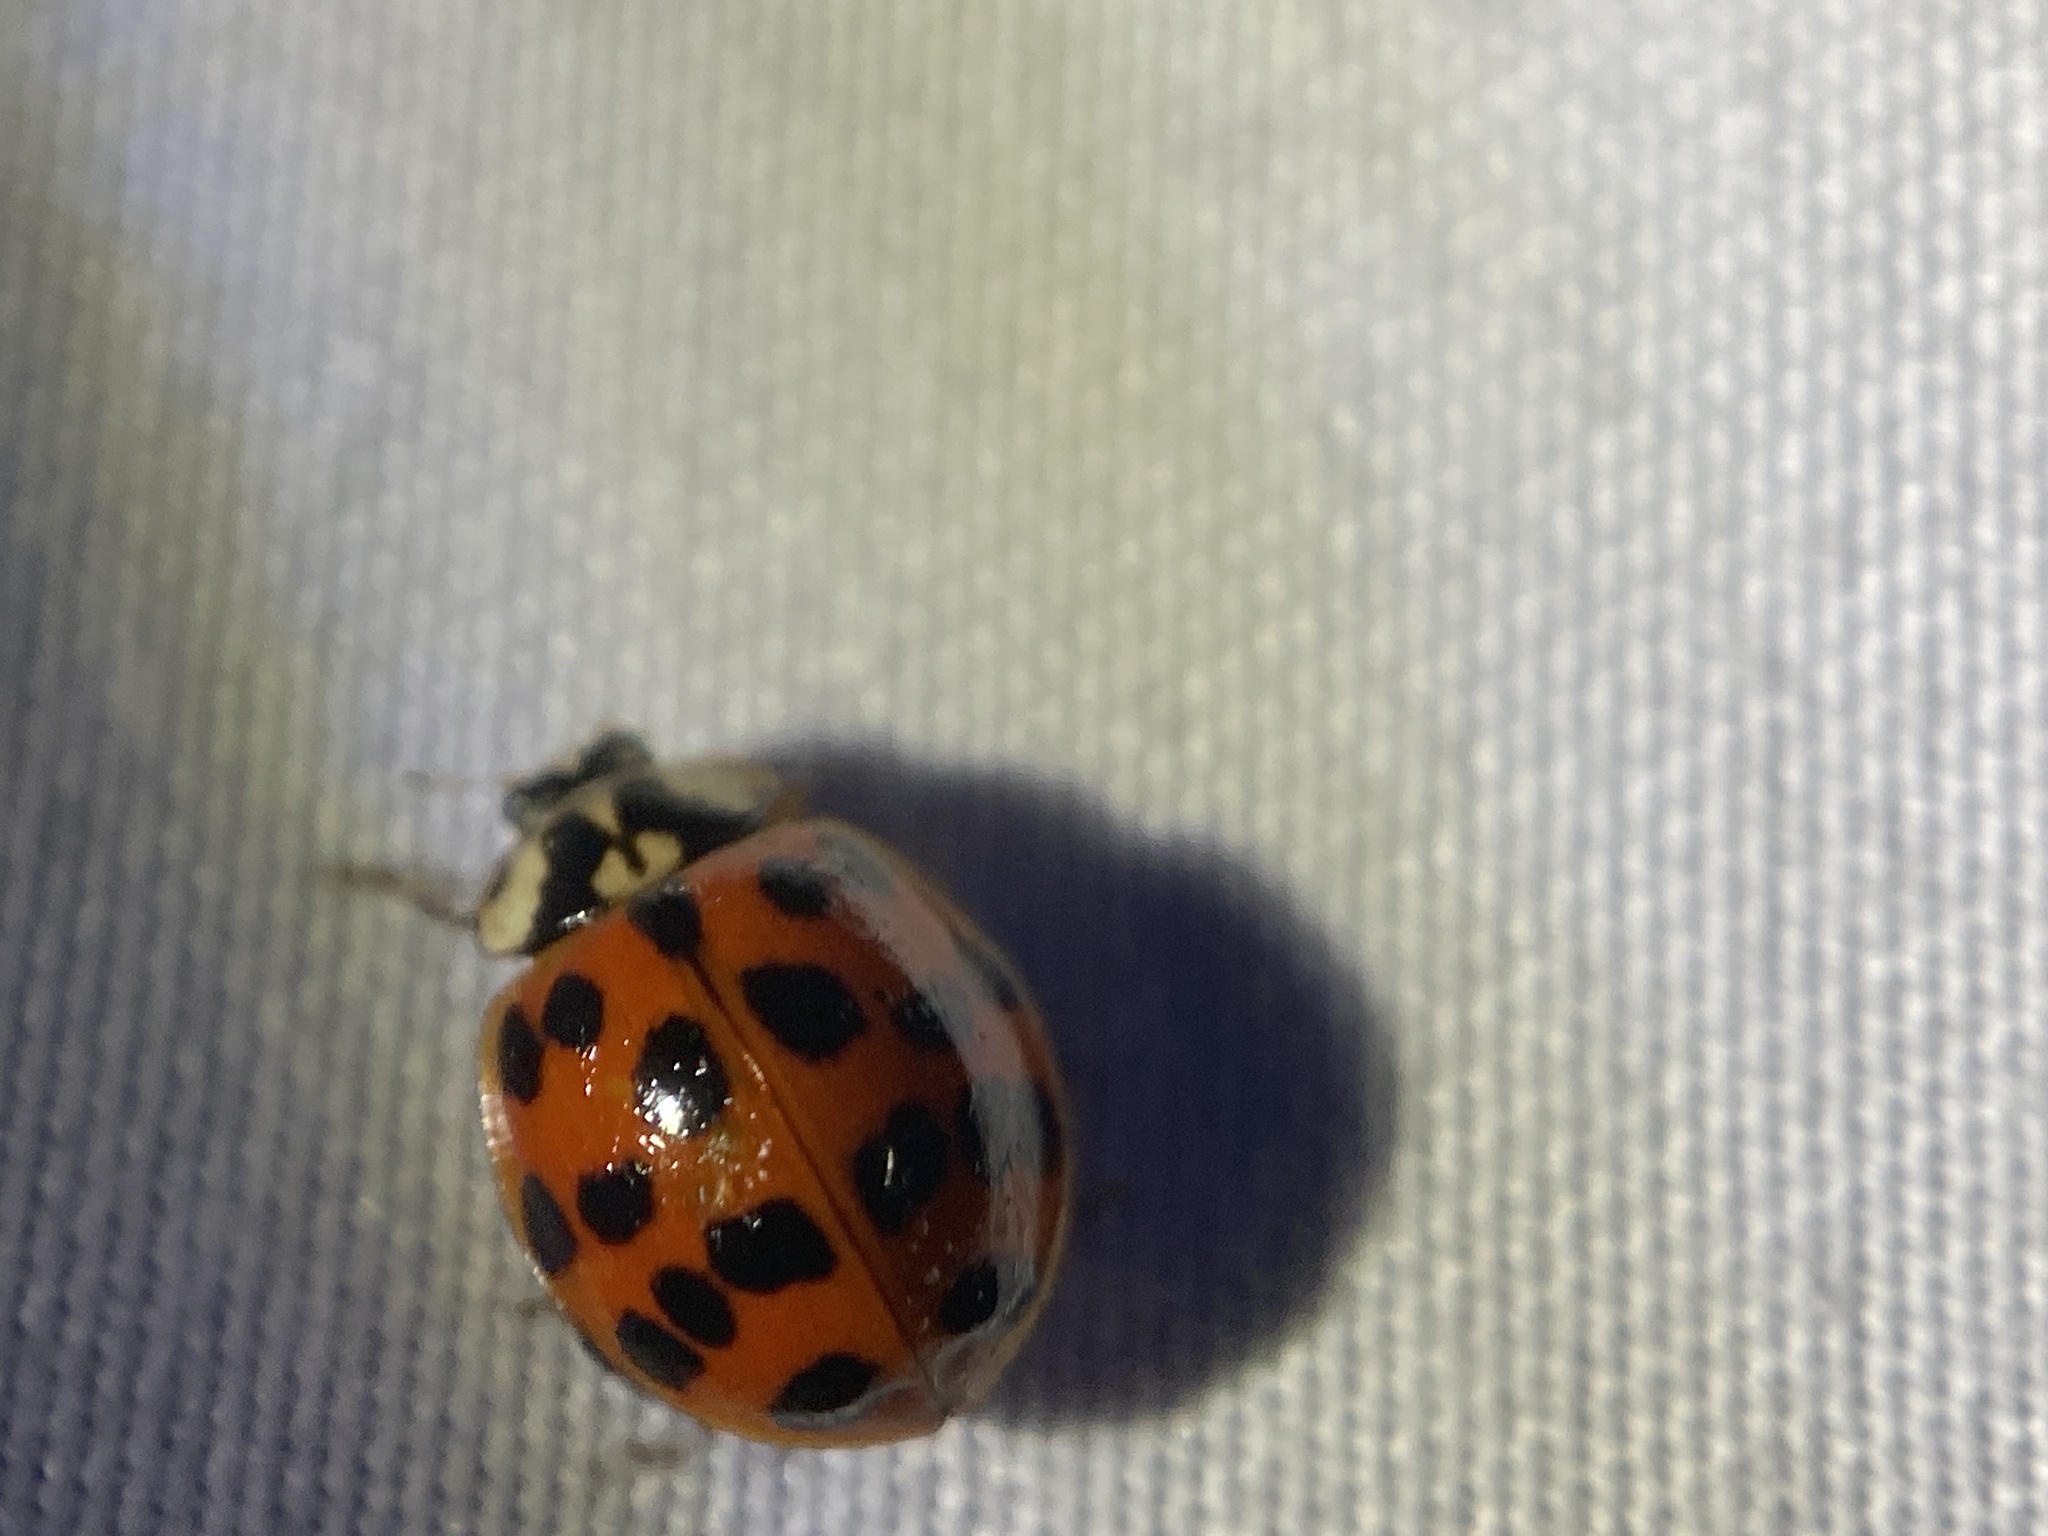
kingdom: Animalia
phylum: Arthropoda
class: Insecta
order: Coleoptera
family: Coccinellidae
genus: Harmonia
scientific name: Harmonia axyridis
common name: Harlequin ladybird
